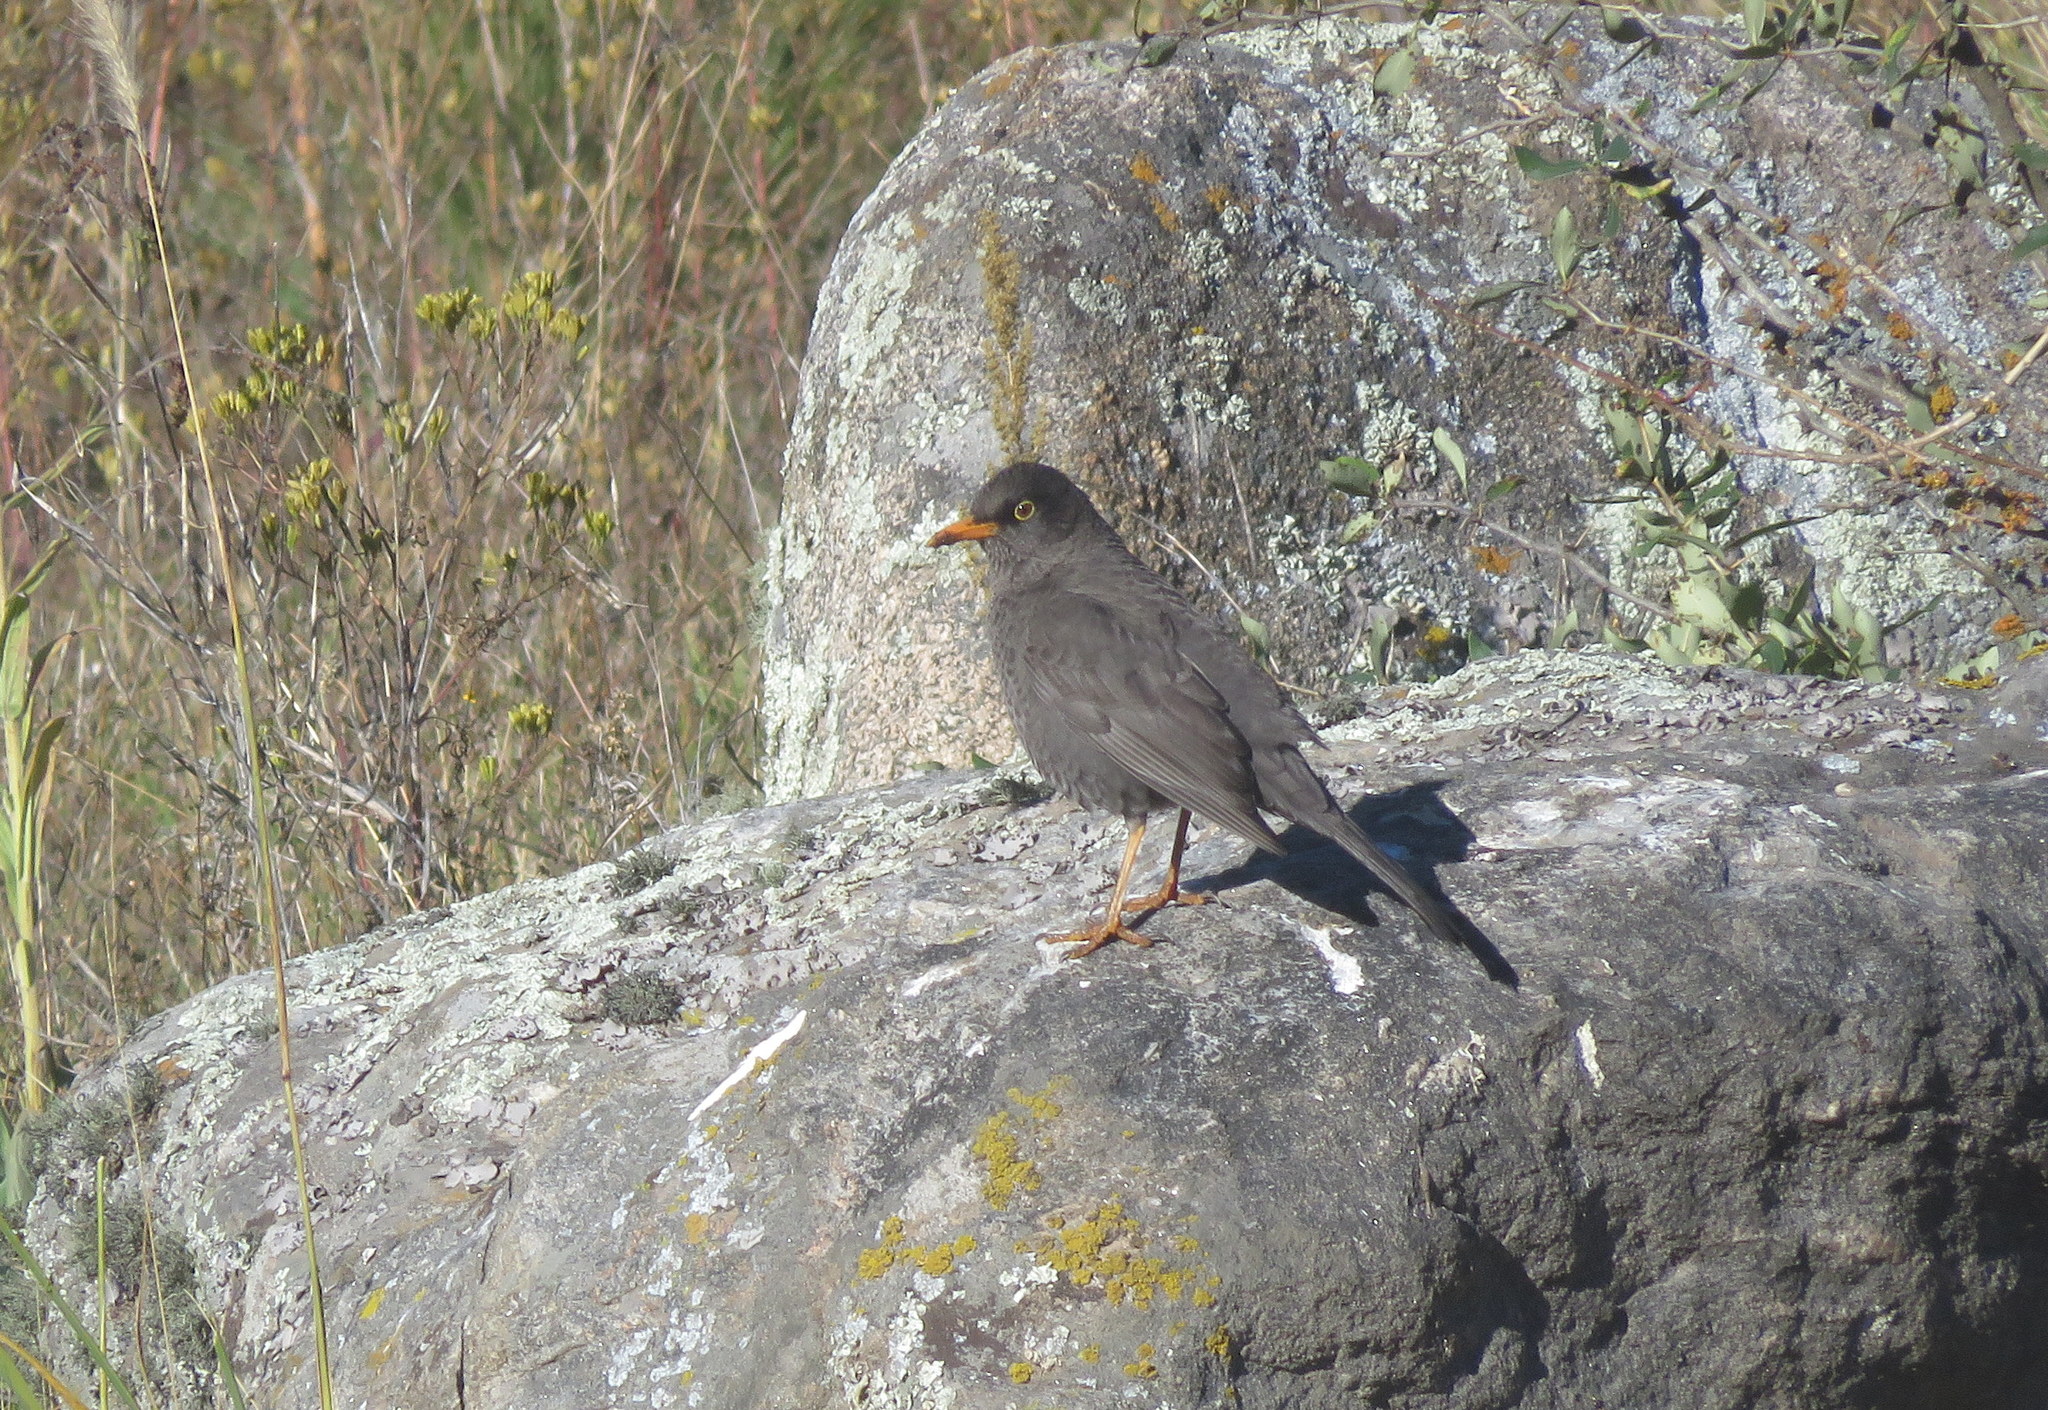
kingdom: Animalia
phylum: Chordata
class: Aves
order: Passeriformes
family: Turdidae
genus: Turdus
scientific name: Turdus chiguanco
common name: Chiguanco thrush
